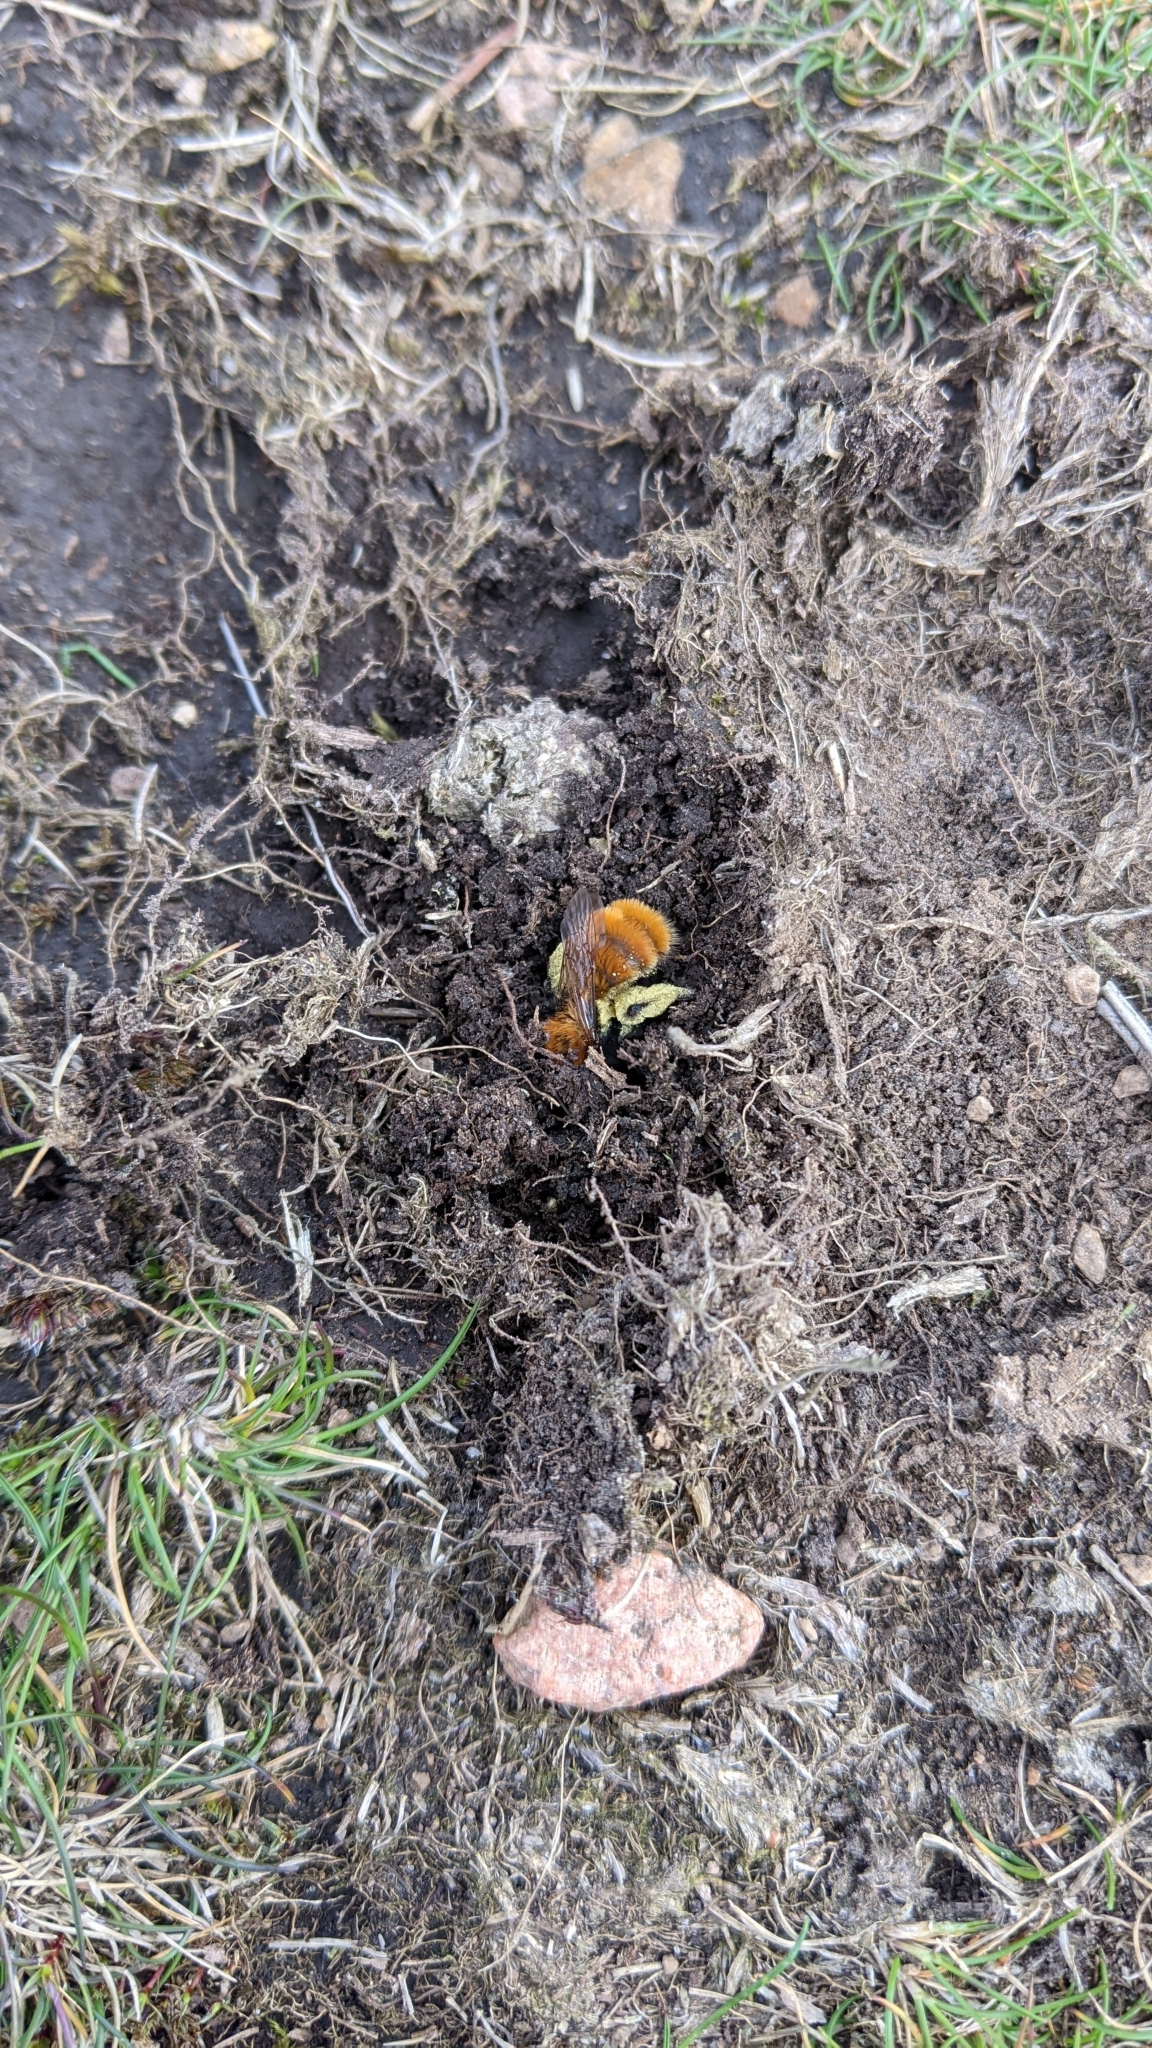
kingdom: Animalia
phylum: Arthropoda
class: Insecta
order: Hymenoptera
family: Andrenidae
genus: Andrena
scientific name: Andrena fulva
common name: Tawny mining bee
